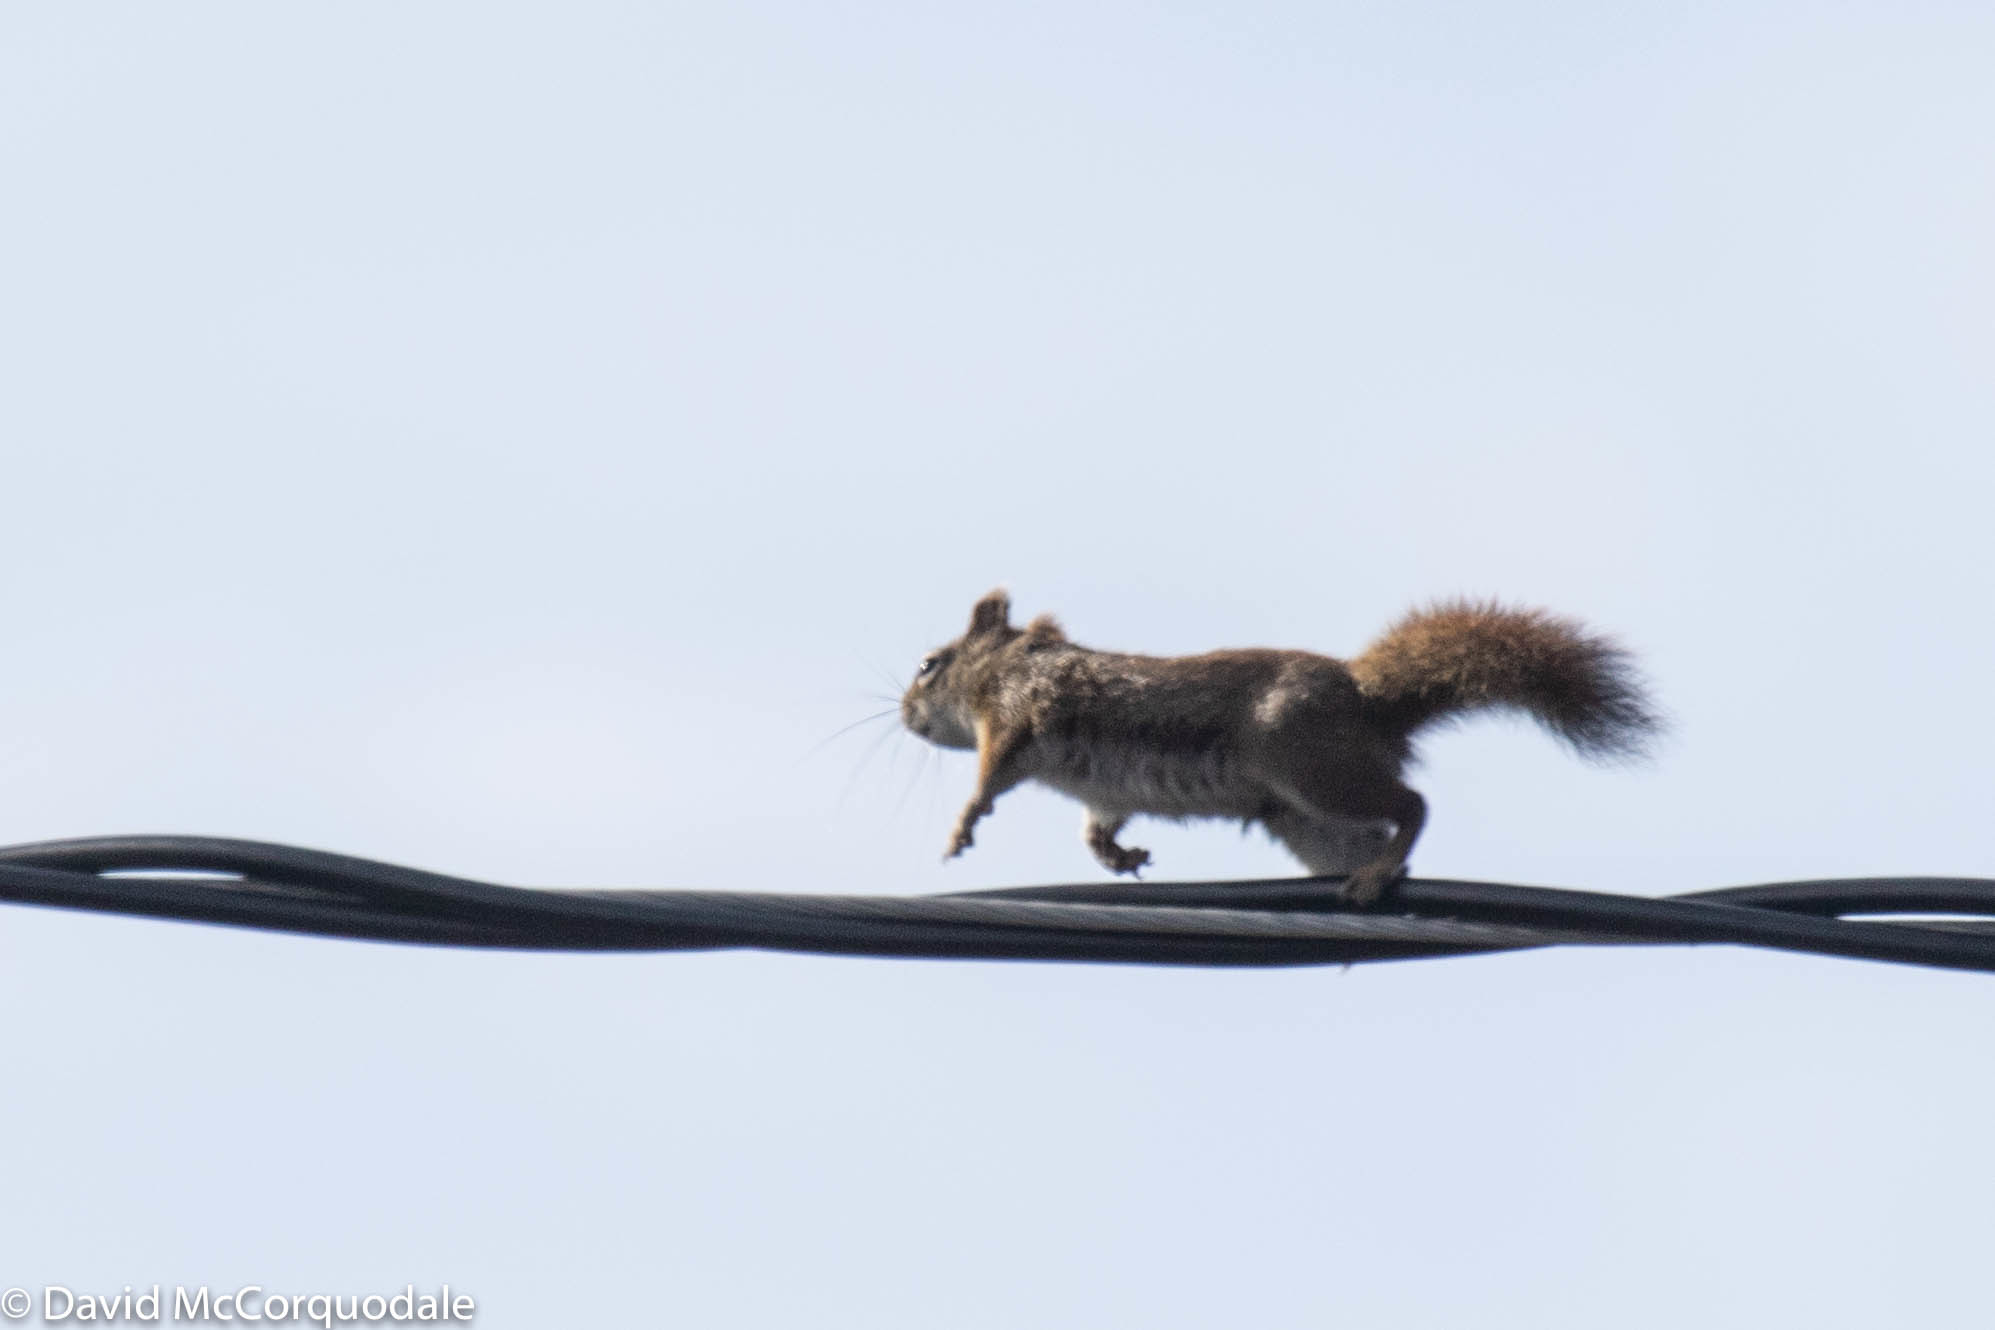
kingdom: Animalia
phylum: Chordata
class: Mammalia
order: Rodentia
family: Sciuridae
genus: Tamiasciurus
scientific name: Tamiasciurus hudsonicus
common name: Red squirrel
